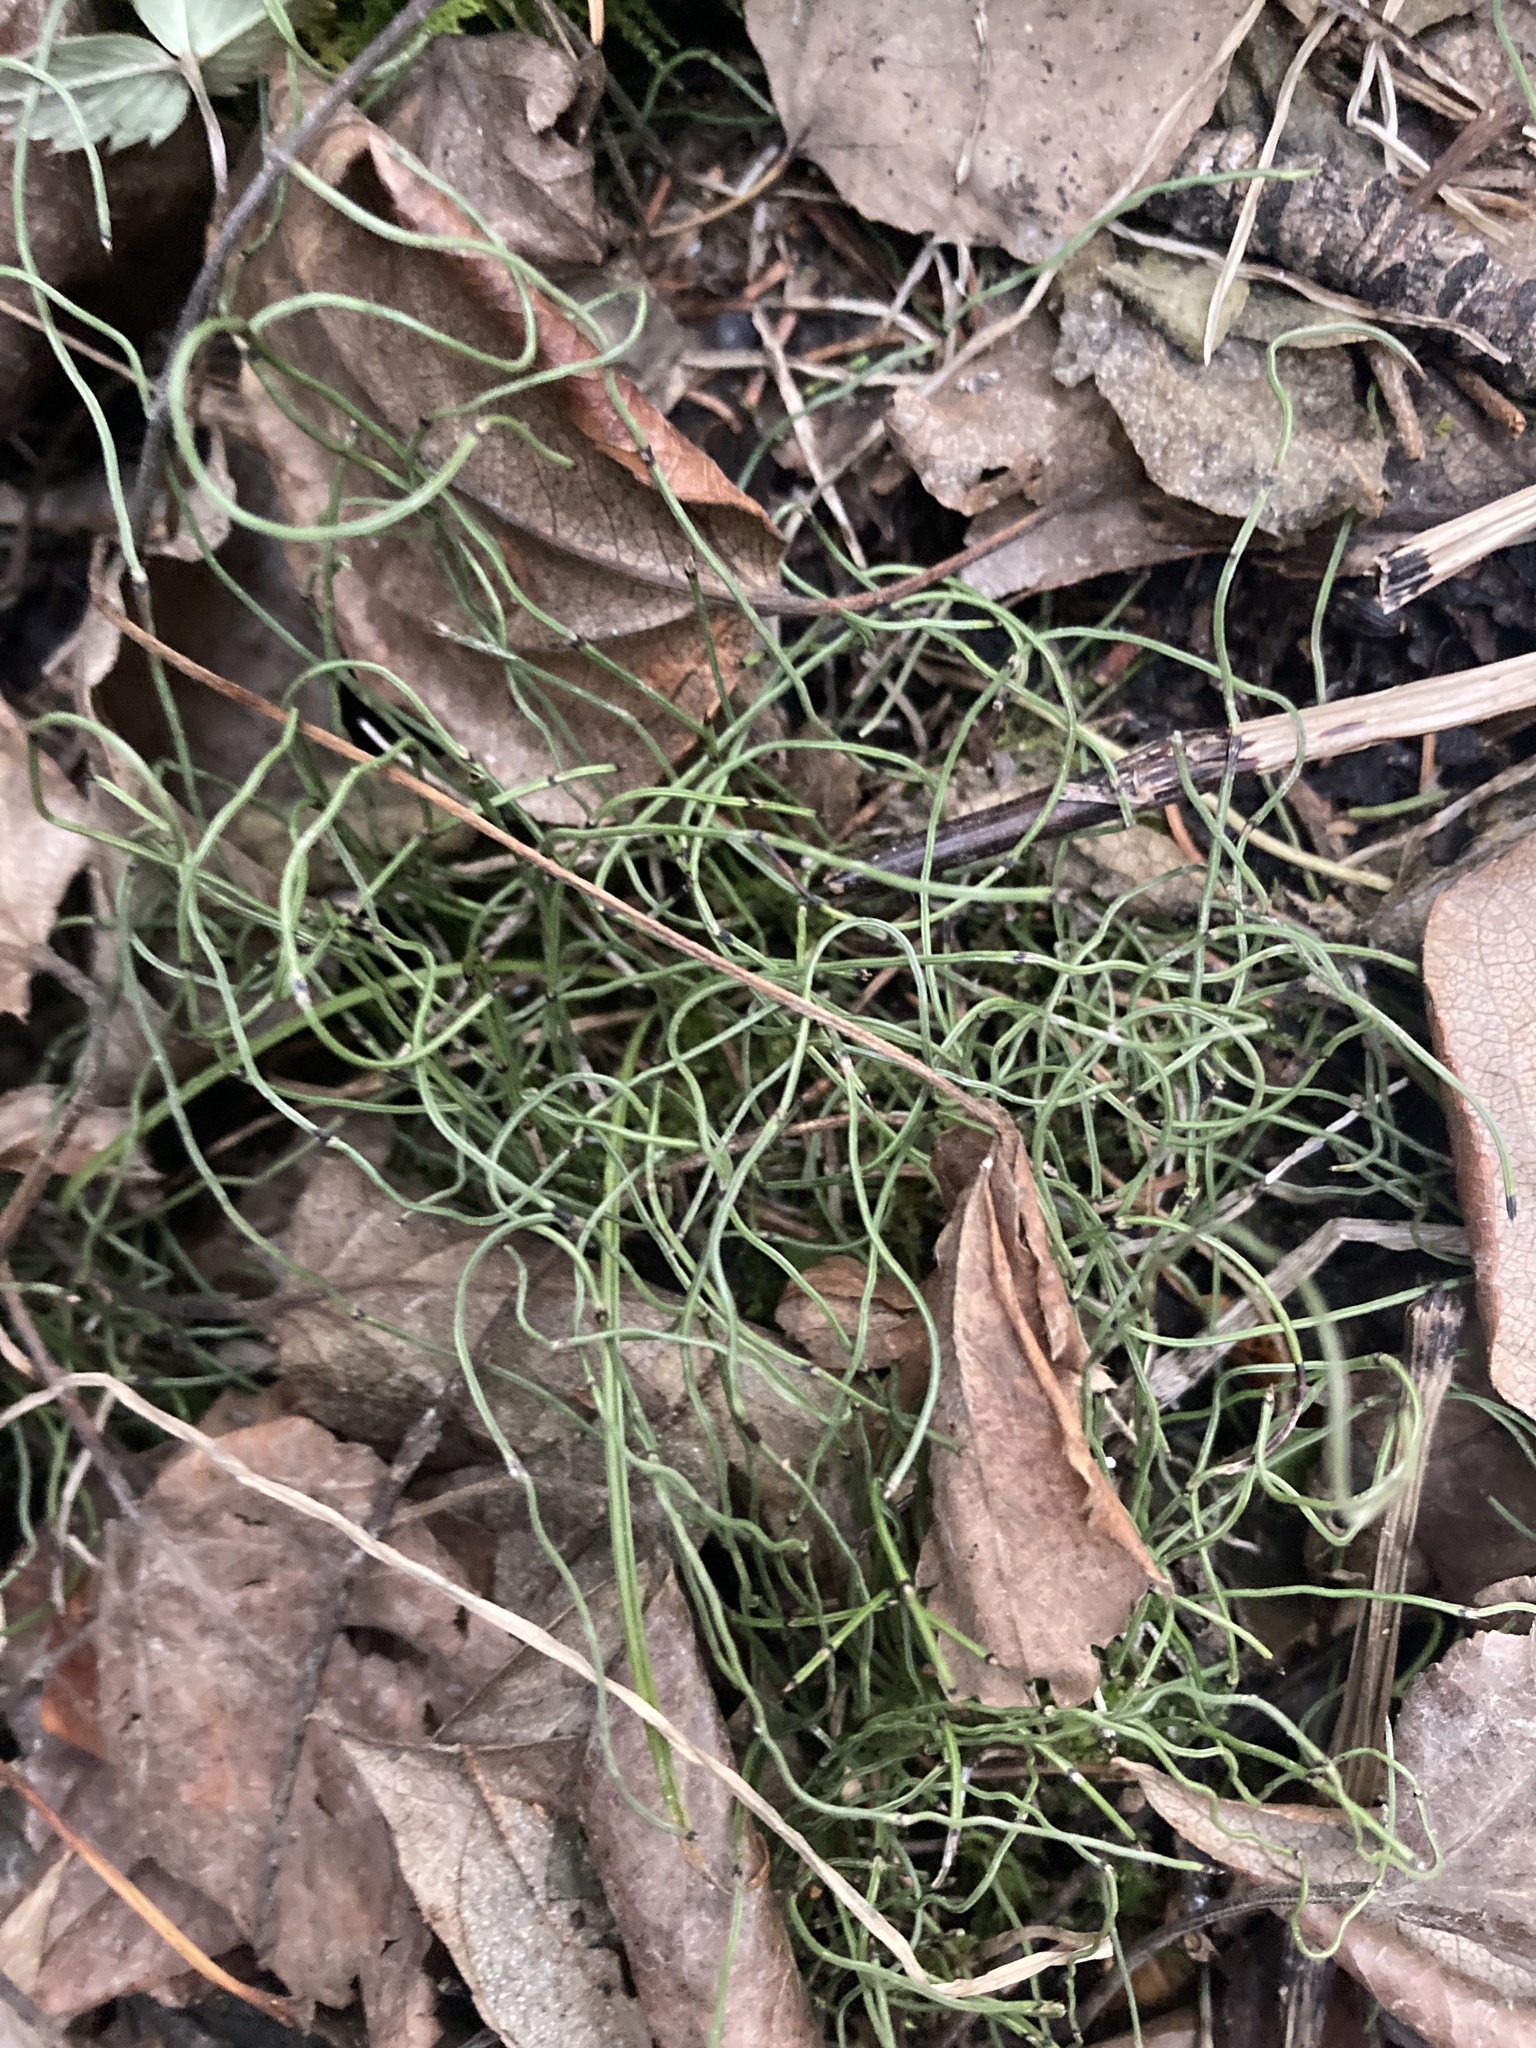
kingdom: Plantae
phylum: Tracheophyta
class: Polypodiopsida
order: Equisetales
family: Equisetaceae
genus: Equisetum
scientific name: Equisetum scirpoides
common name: Delicate horsetail
